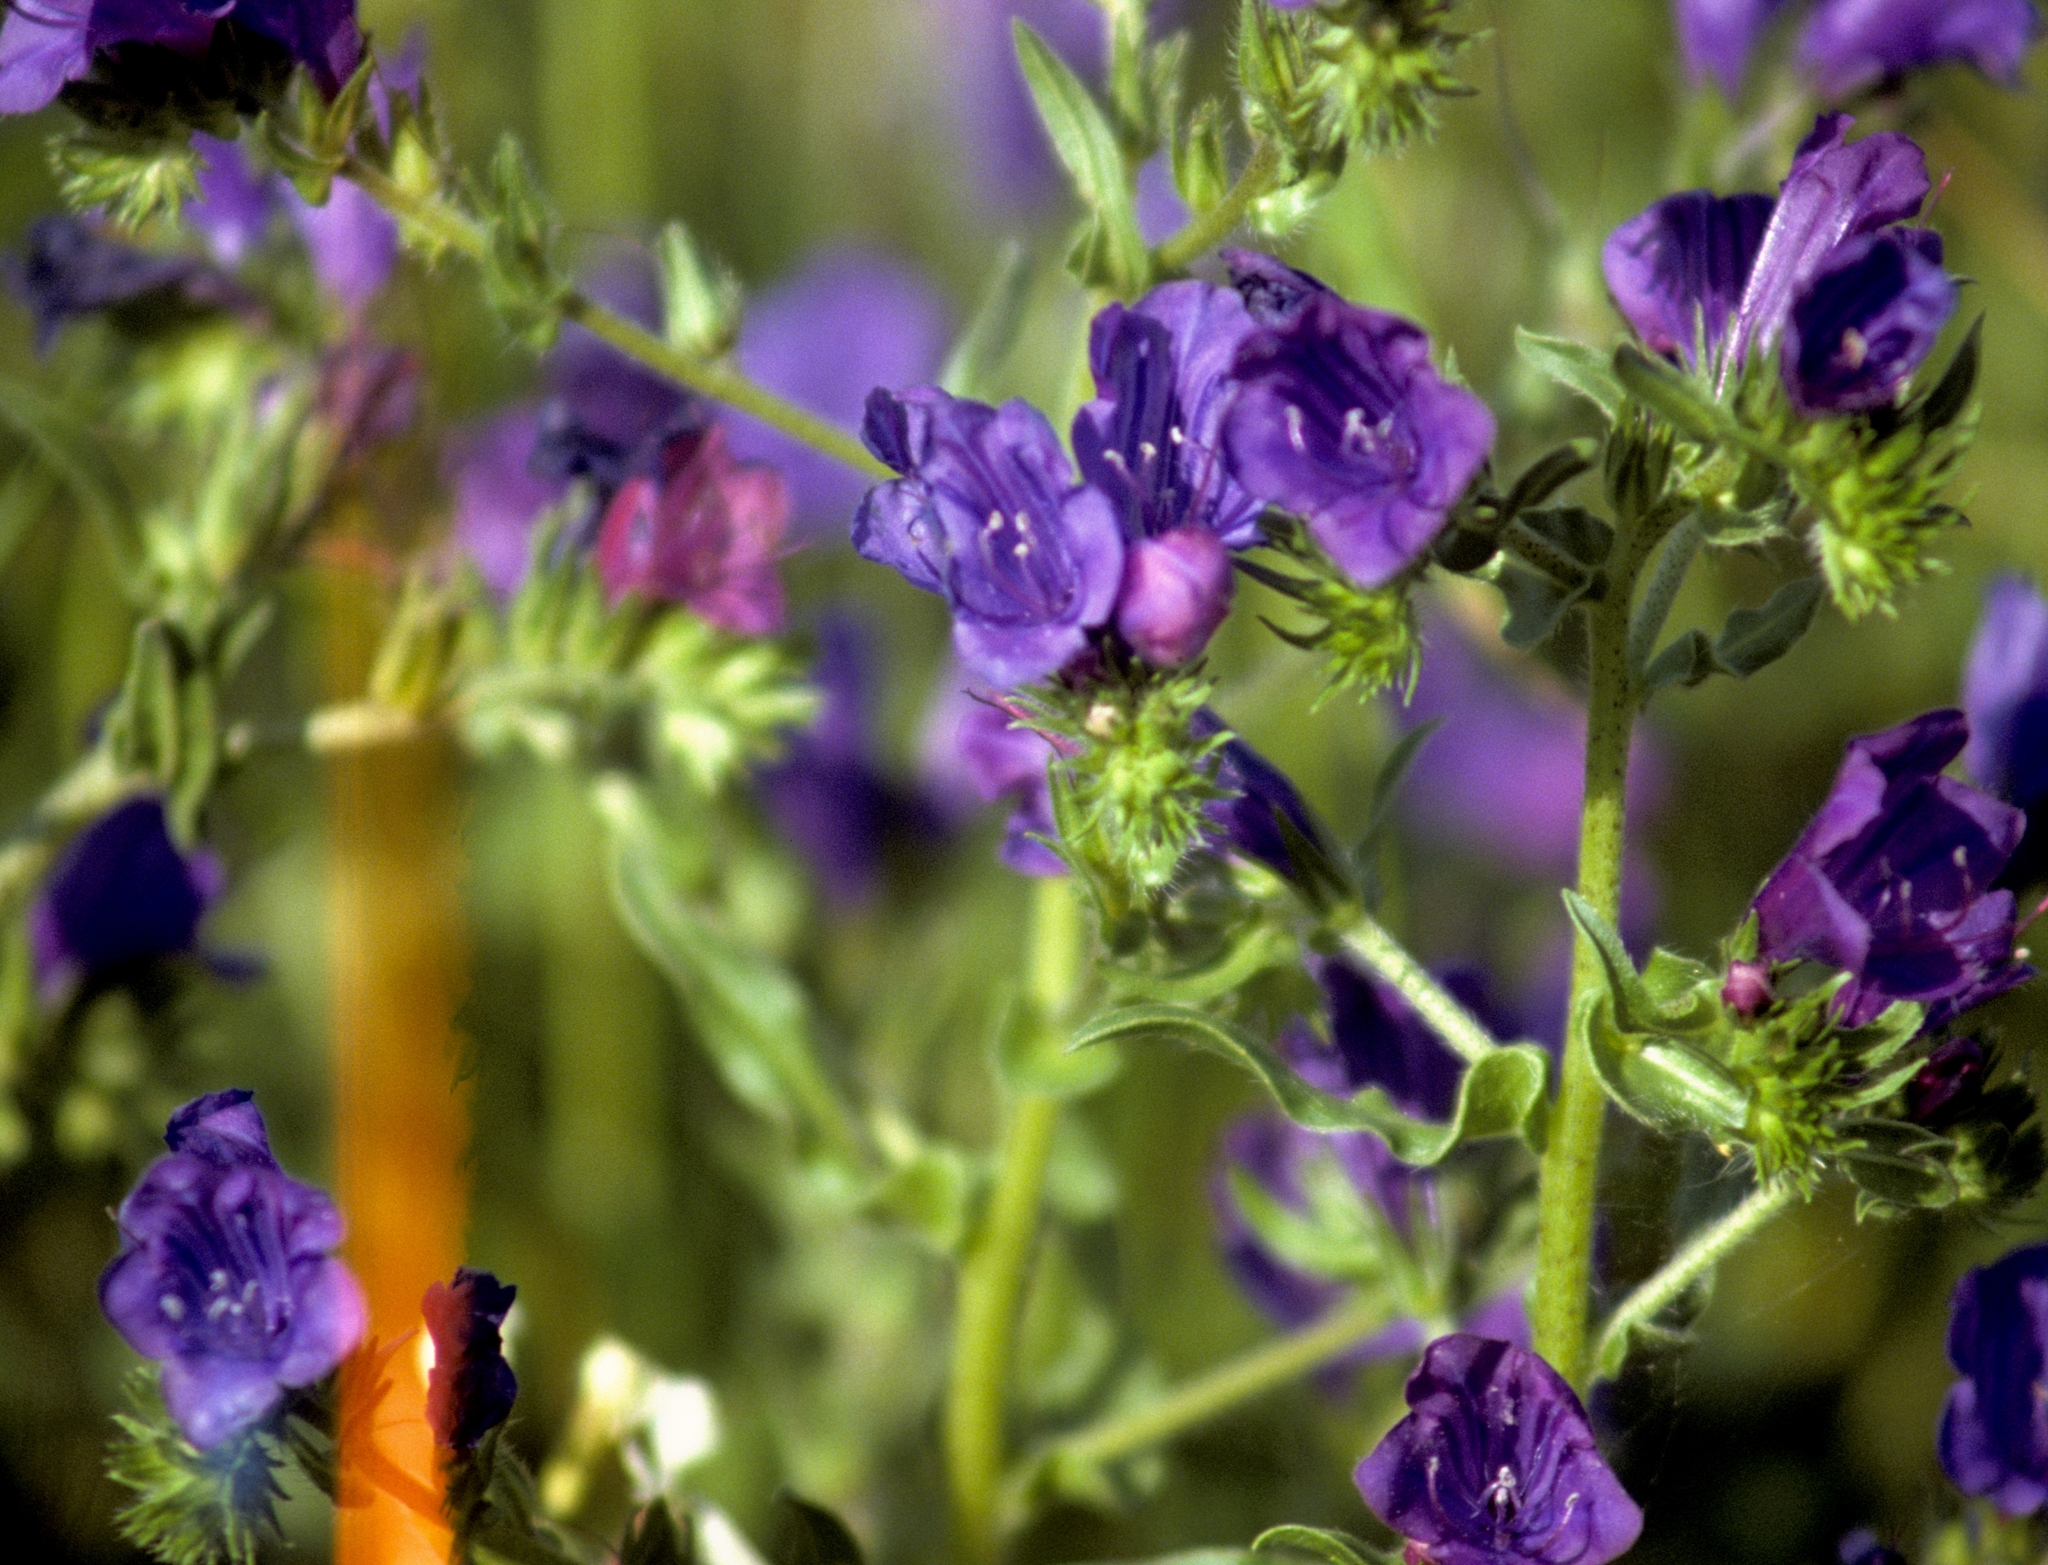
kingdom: Plantae
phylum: Tracheophyta
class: Magnoliopsida
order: Boraginales
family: Boraginaceae
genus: Echium
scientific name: Echium vulgare
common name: Common viper's bugloss
